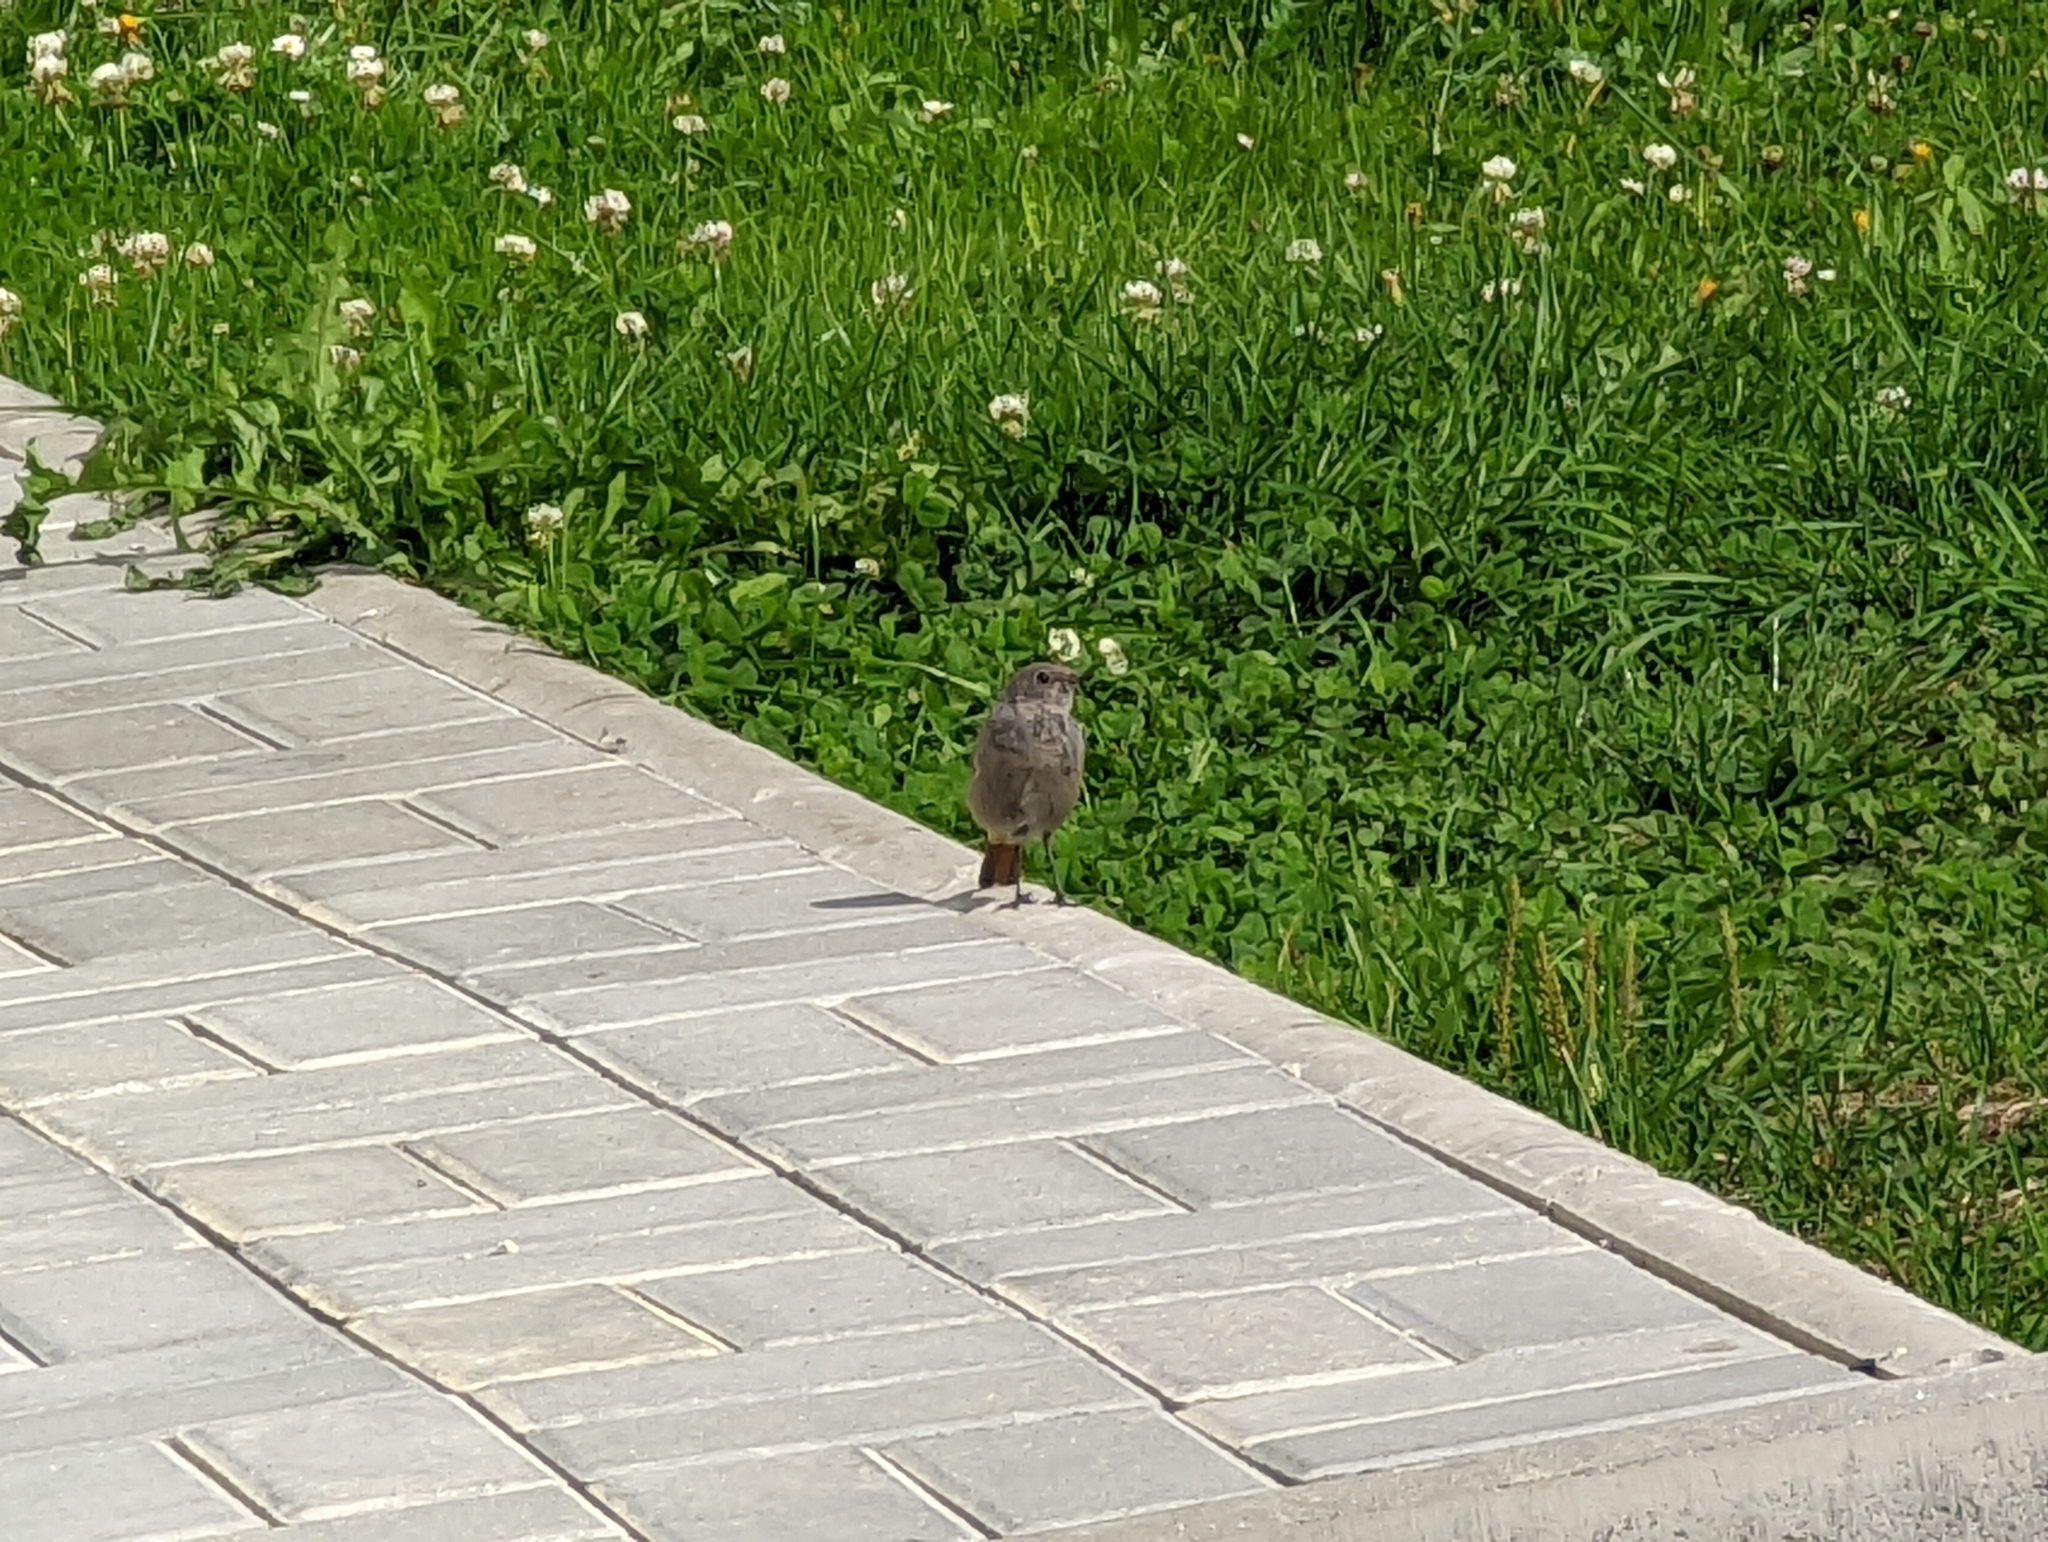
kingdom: Animalia
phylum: Chordata
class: Aves
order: Passeriformes
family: Muscicapidae
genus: Phoenicurus
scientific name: Phoenicurus ochruros
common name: Black redstart
